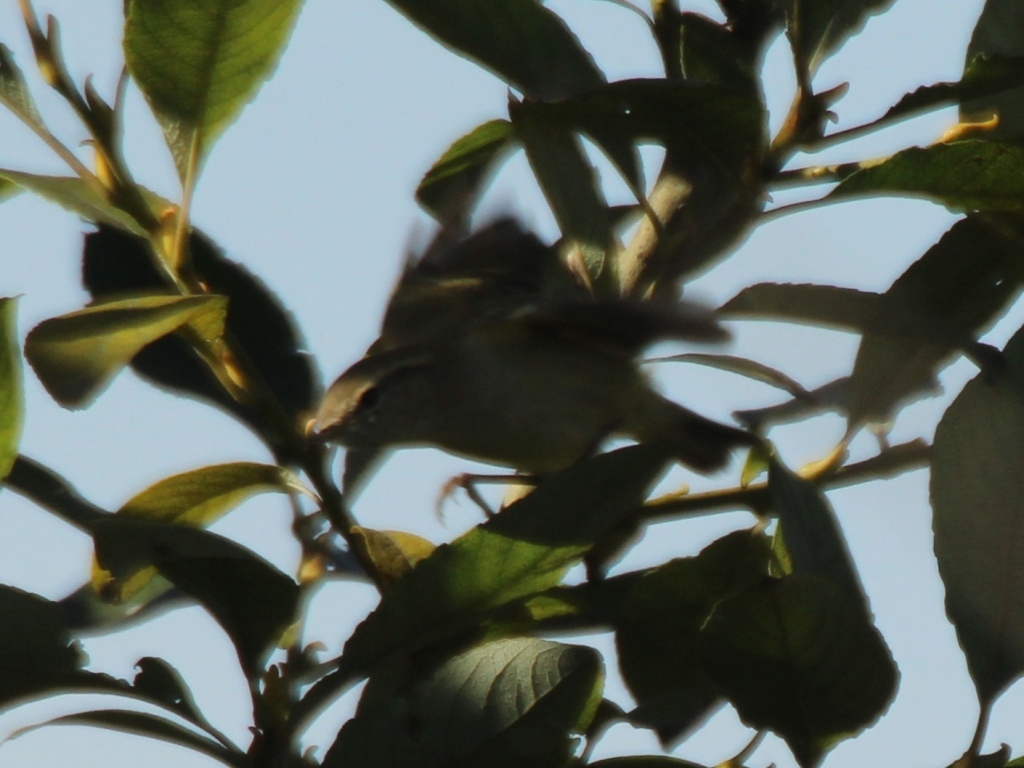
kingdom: Animalia
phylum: Chordata
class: Aves
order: Passeriformes
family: Phylloscopidae
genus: Phylloscopus
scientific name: Phylloscopus inornatus
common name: Yellow-browed warbler
